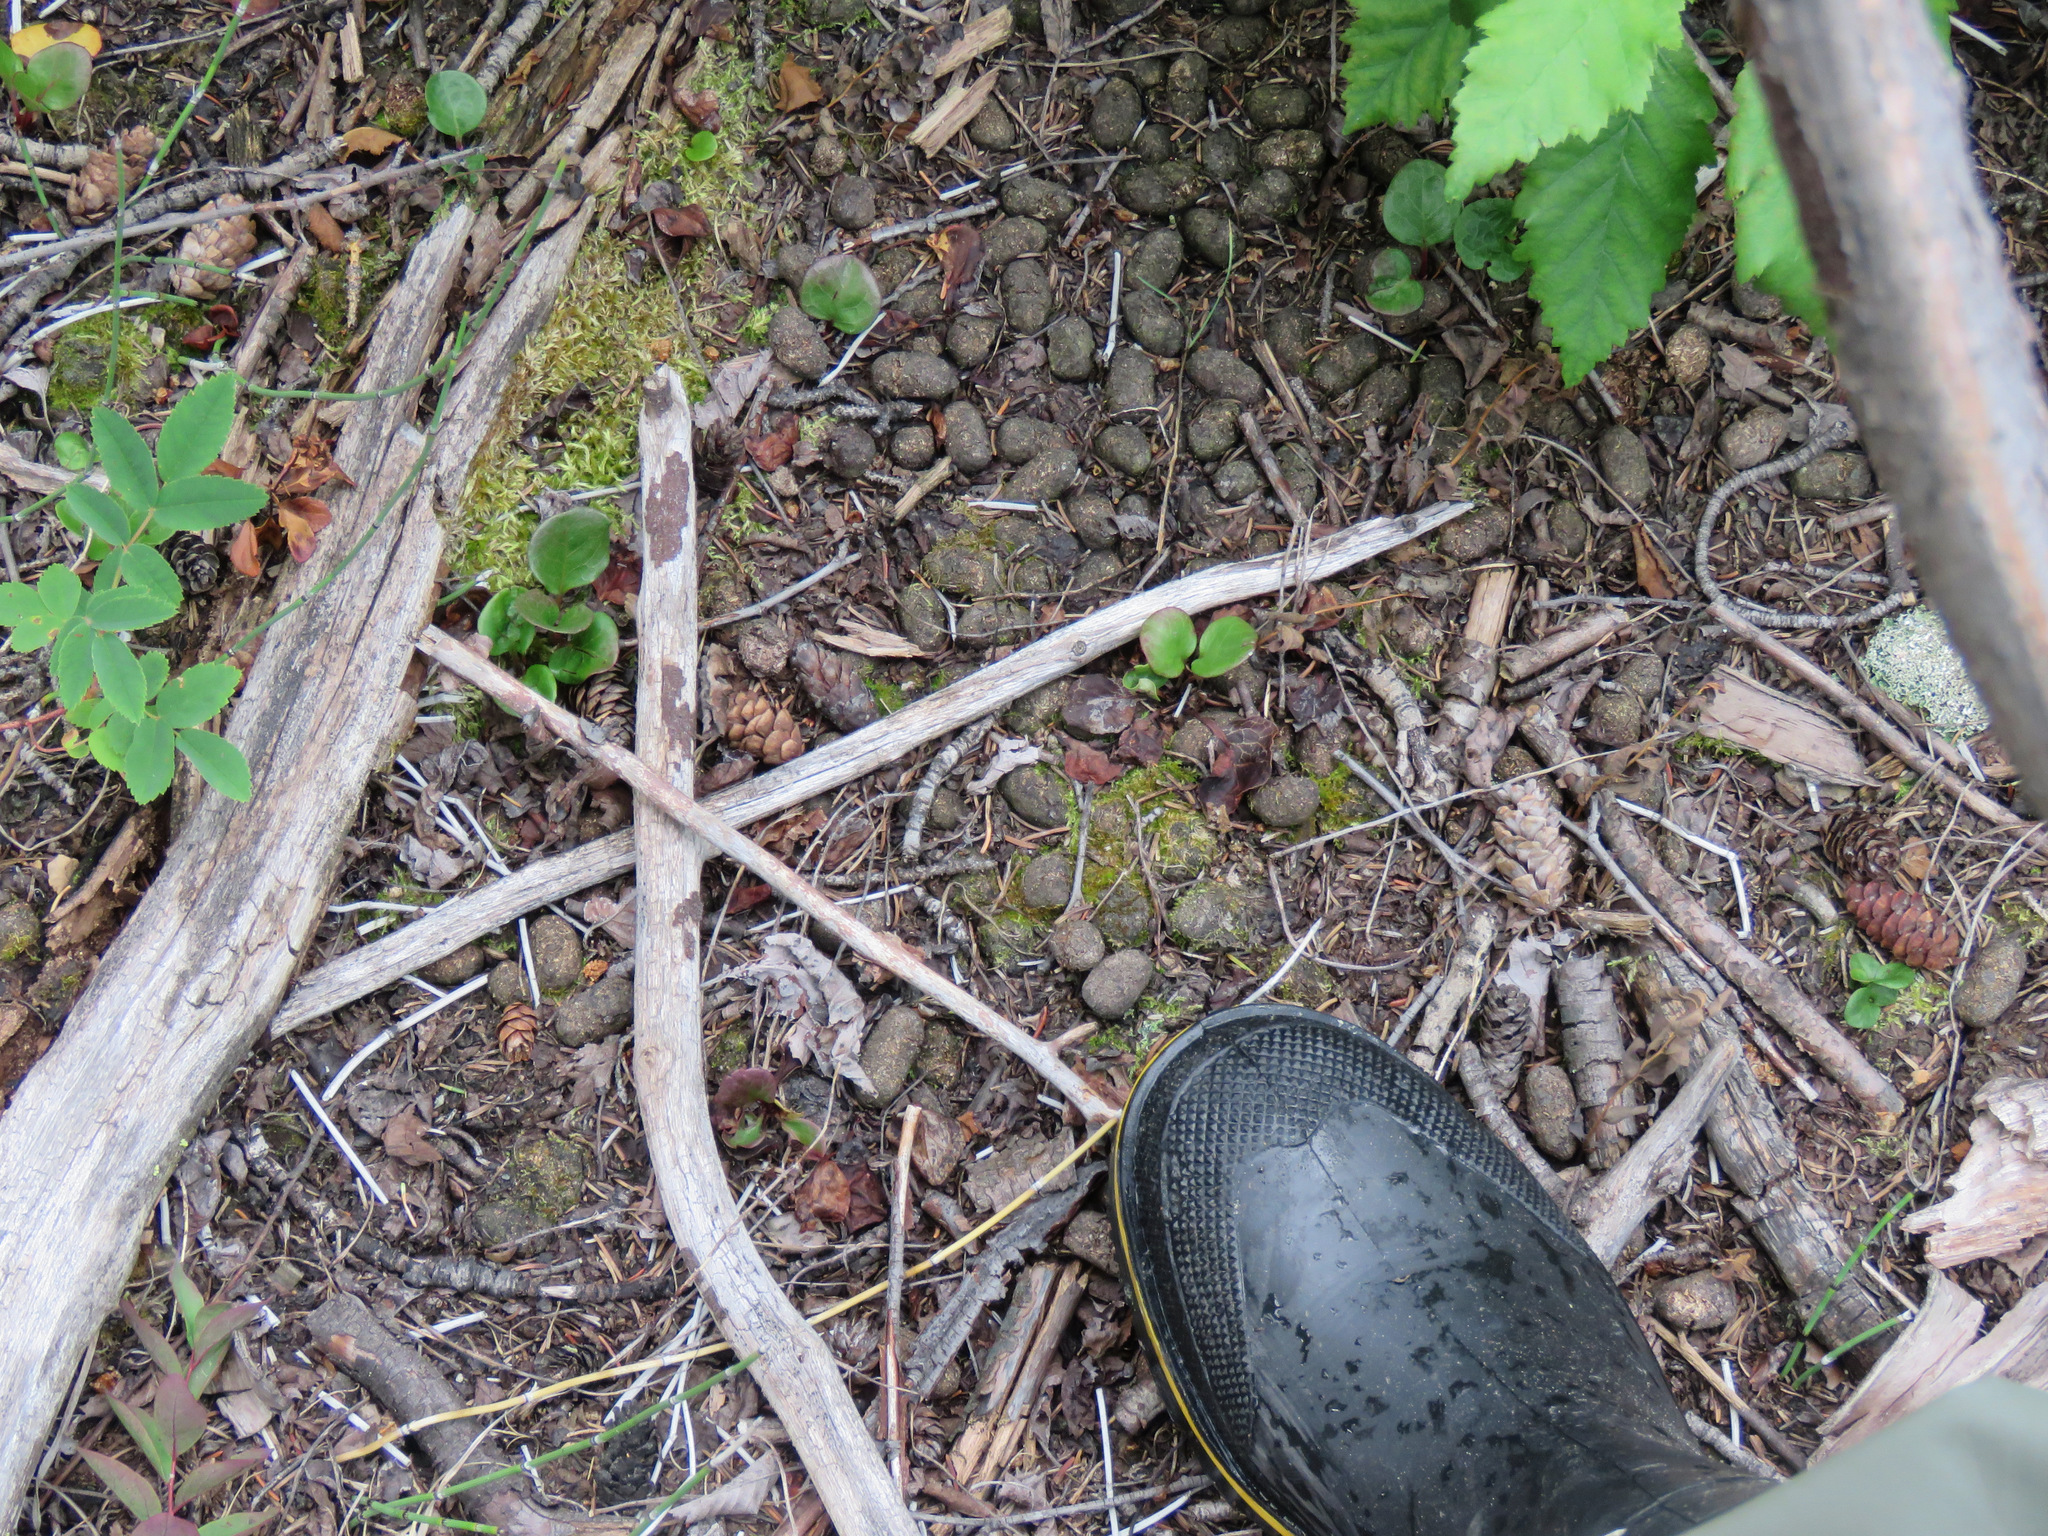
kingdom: Animalia
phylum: Chordata
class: Mammalia
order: Artiodactyla
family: Cervidae
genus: Alces
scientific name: Alces alces
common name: Moose
